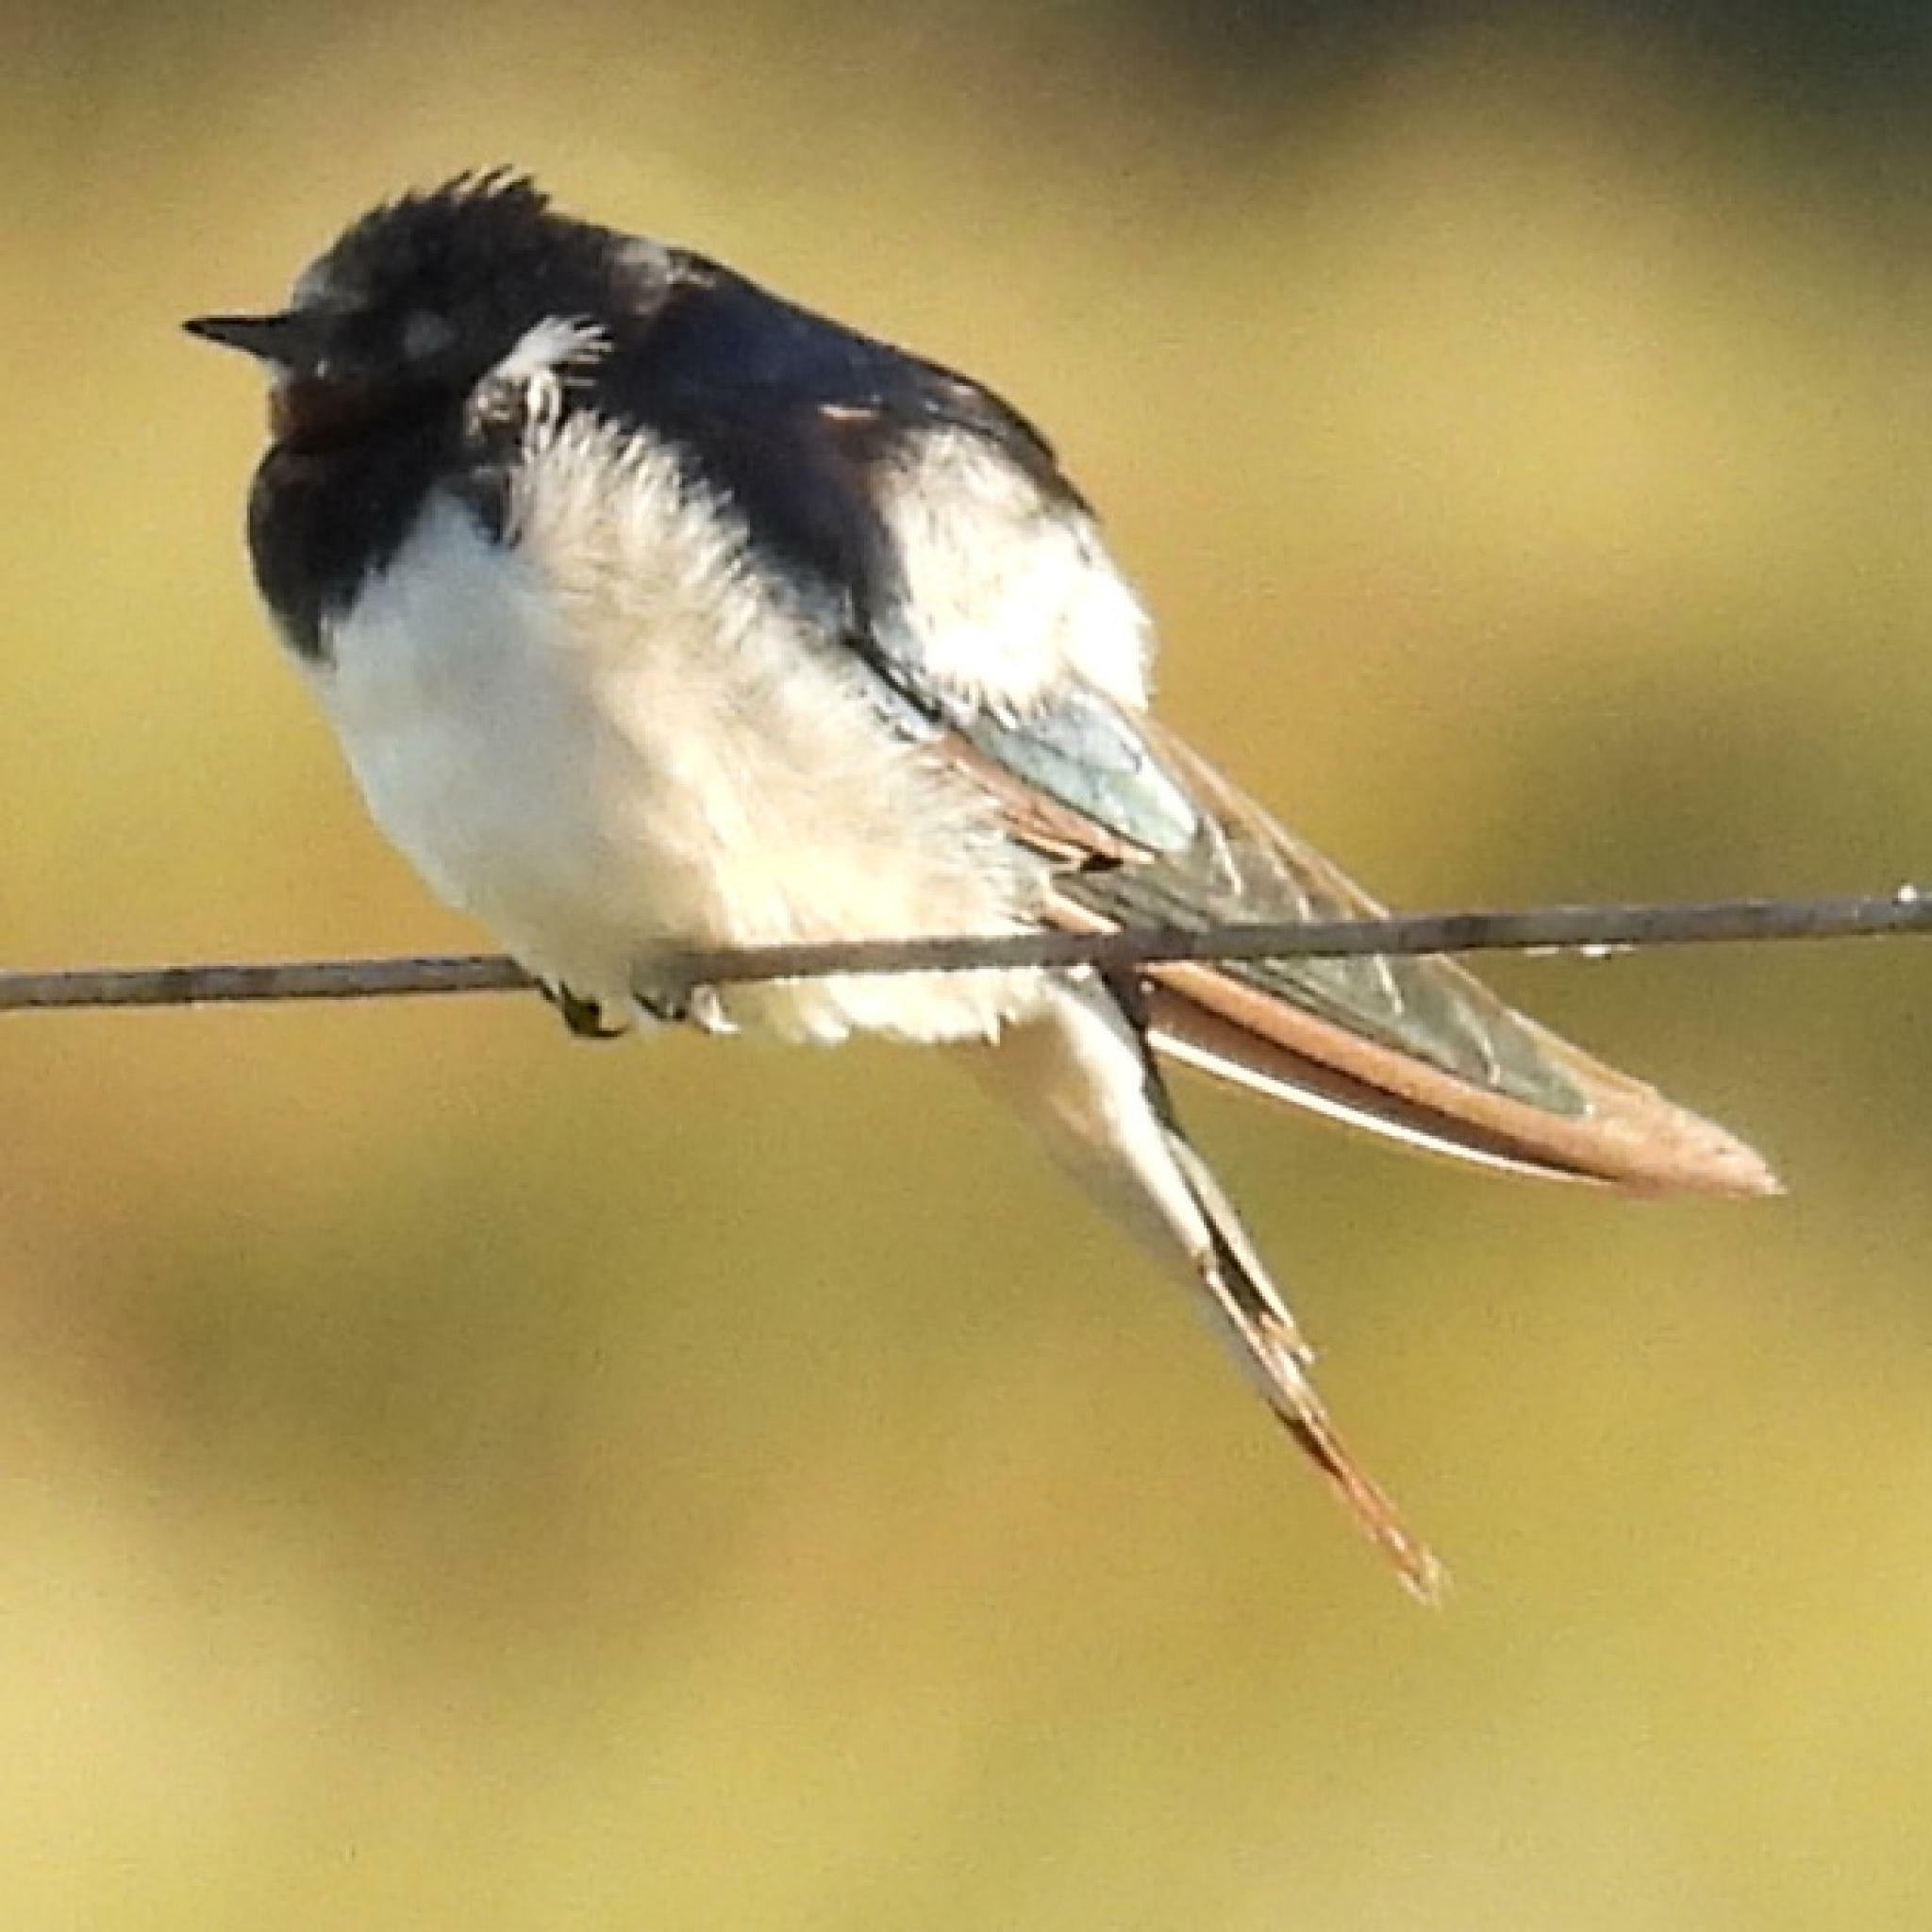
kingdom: Animalia
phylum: Chordata
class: Aves
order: Passeriformes
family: Hirundinidae
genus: Hirundo
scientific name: Hirundo rustica
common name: Barn swallow
